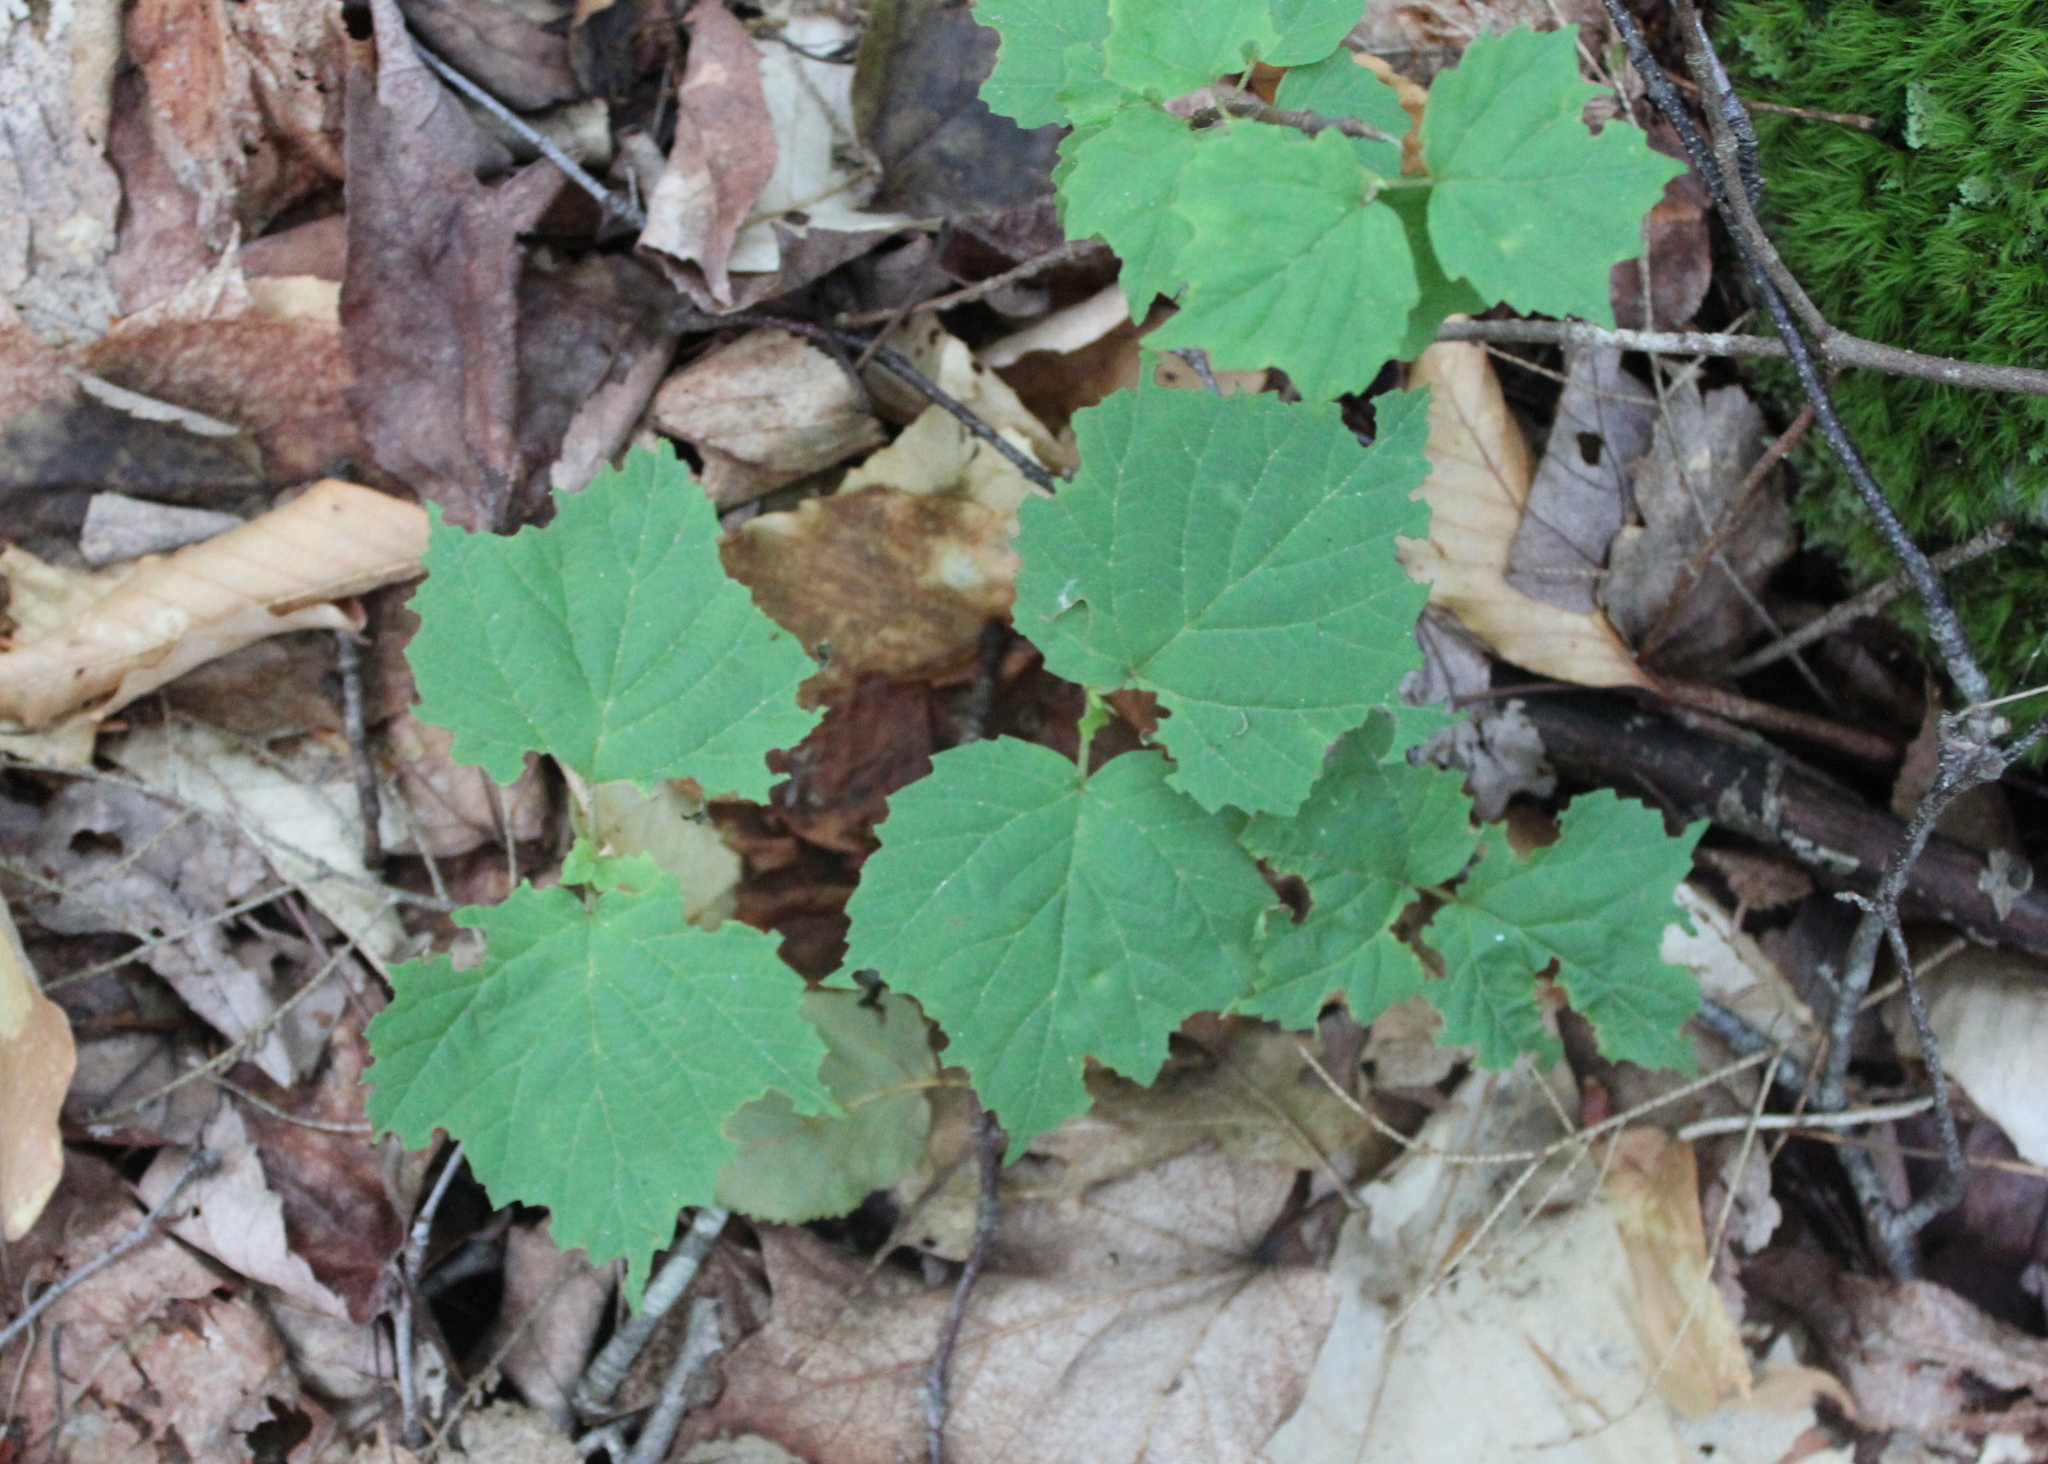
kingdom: Plantae
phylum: Tracheophyta
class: Magnoliopsida
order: Dipsacales
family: Viburnaceae
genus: Viburnum
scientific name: Viburnum acerifolium
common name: Dockmackie
